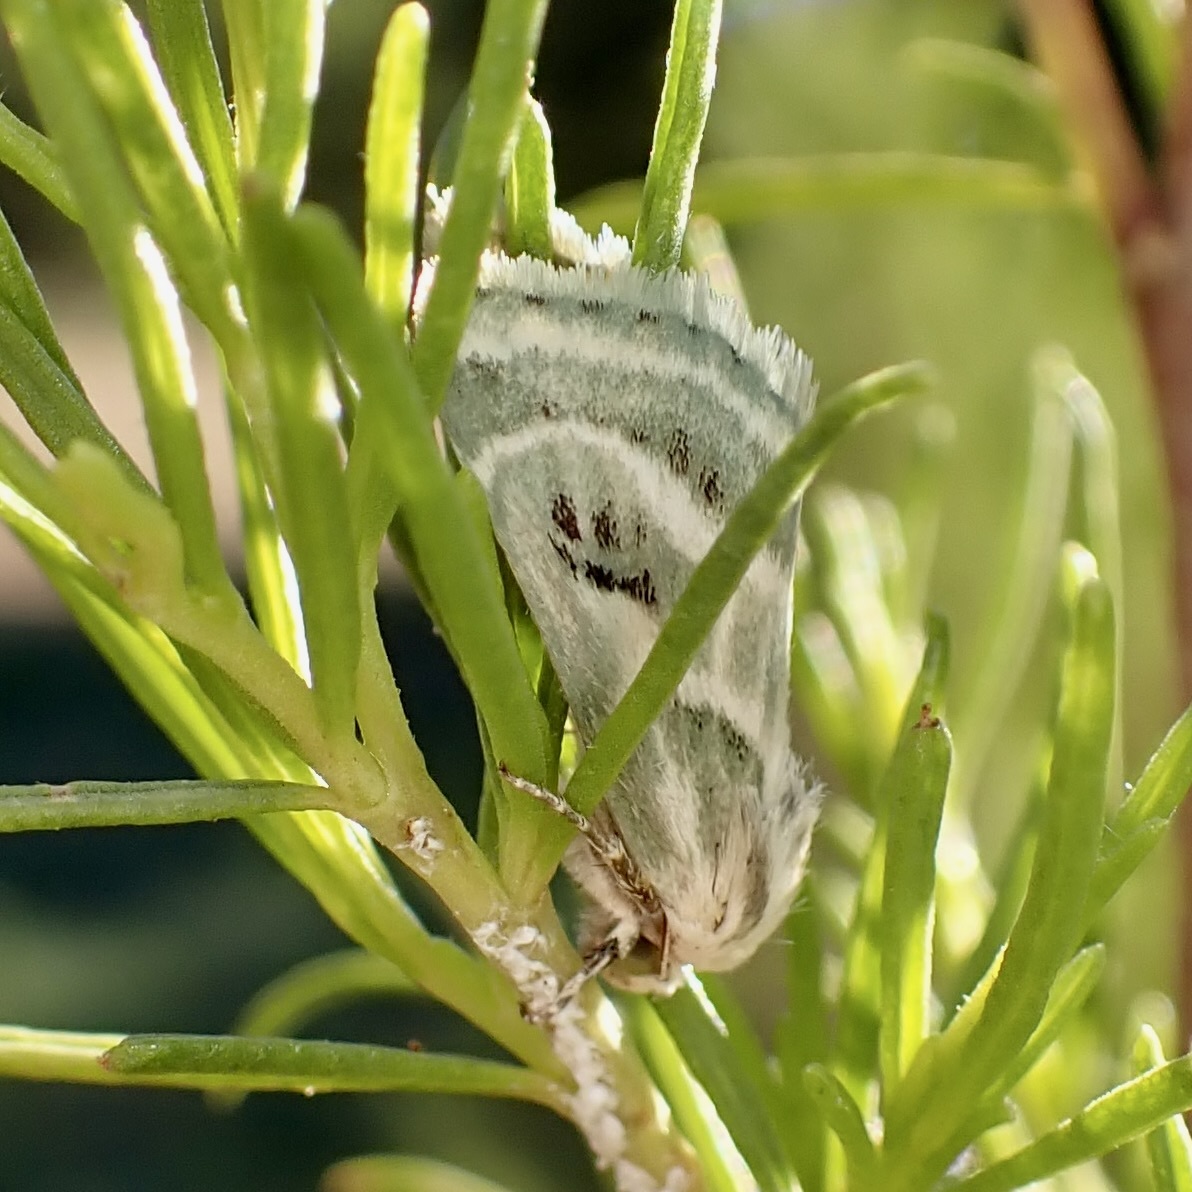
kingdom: Animalia
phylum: Arthropoda
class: Insecta
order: Lepidoptera
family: Noctuidae
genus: Schinia
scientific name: Schinia accessa
